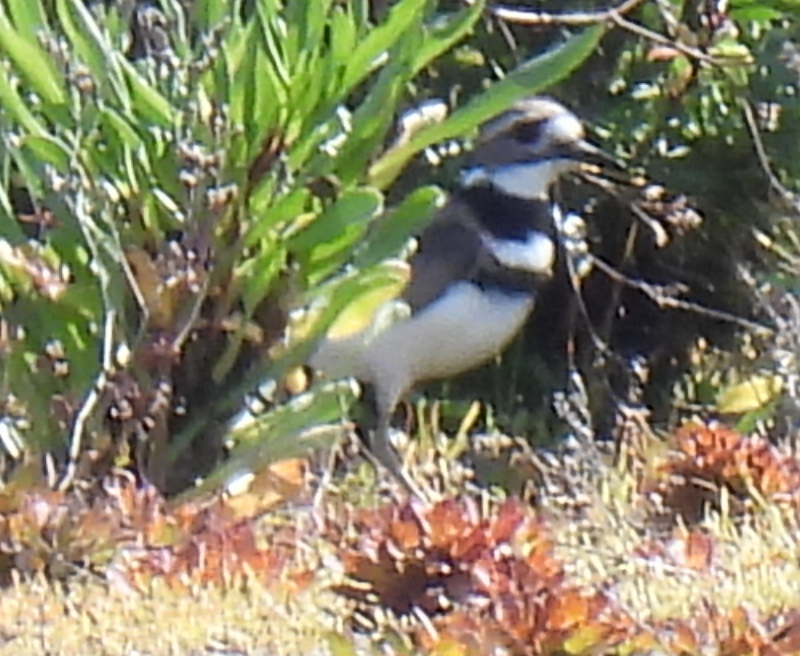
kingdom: Animalia
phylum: Chordata
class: Aves
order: Charadriiformes
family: Charadriidae
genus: Charadrius
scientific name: Charadrius vociferus
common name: Killdeer
